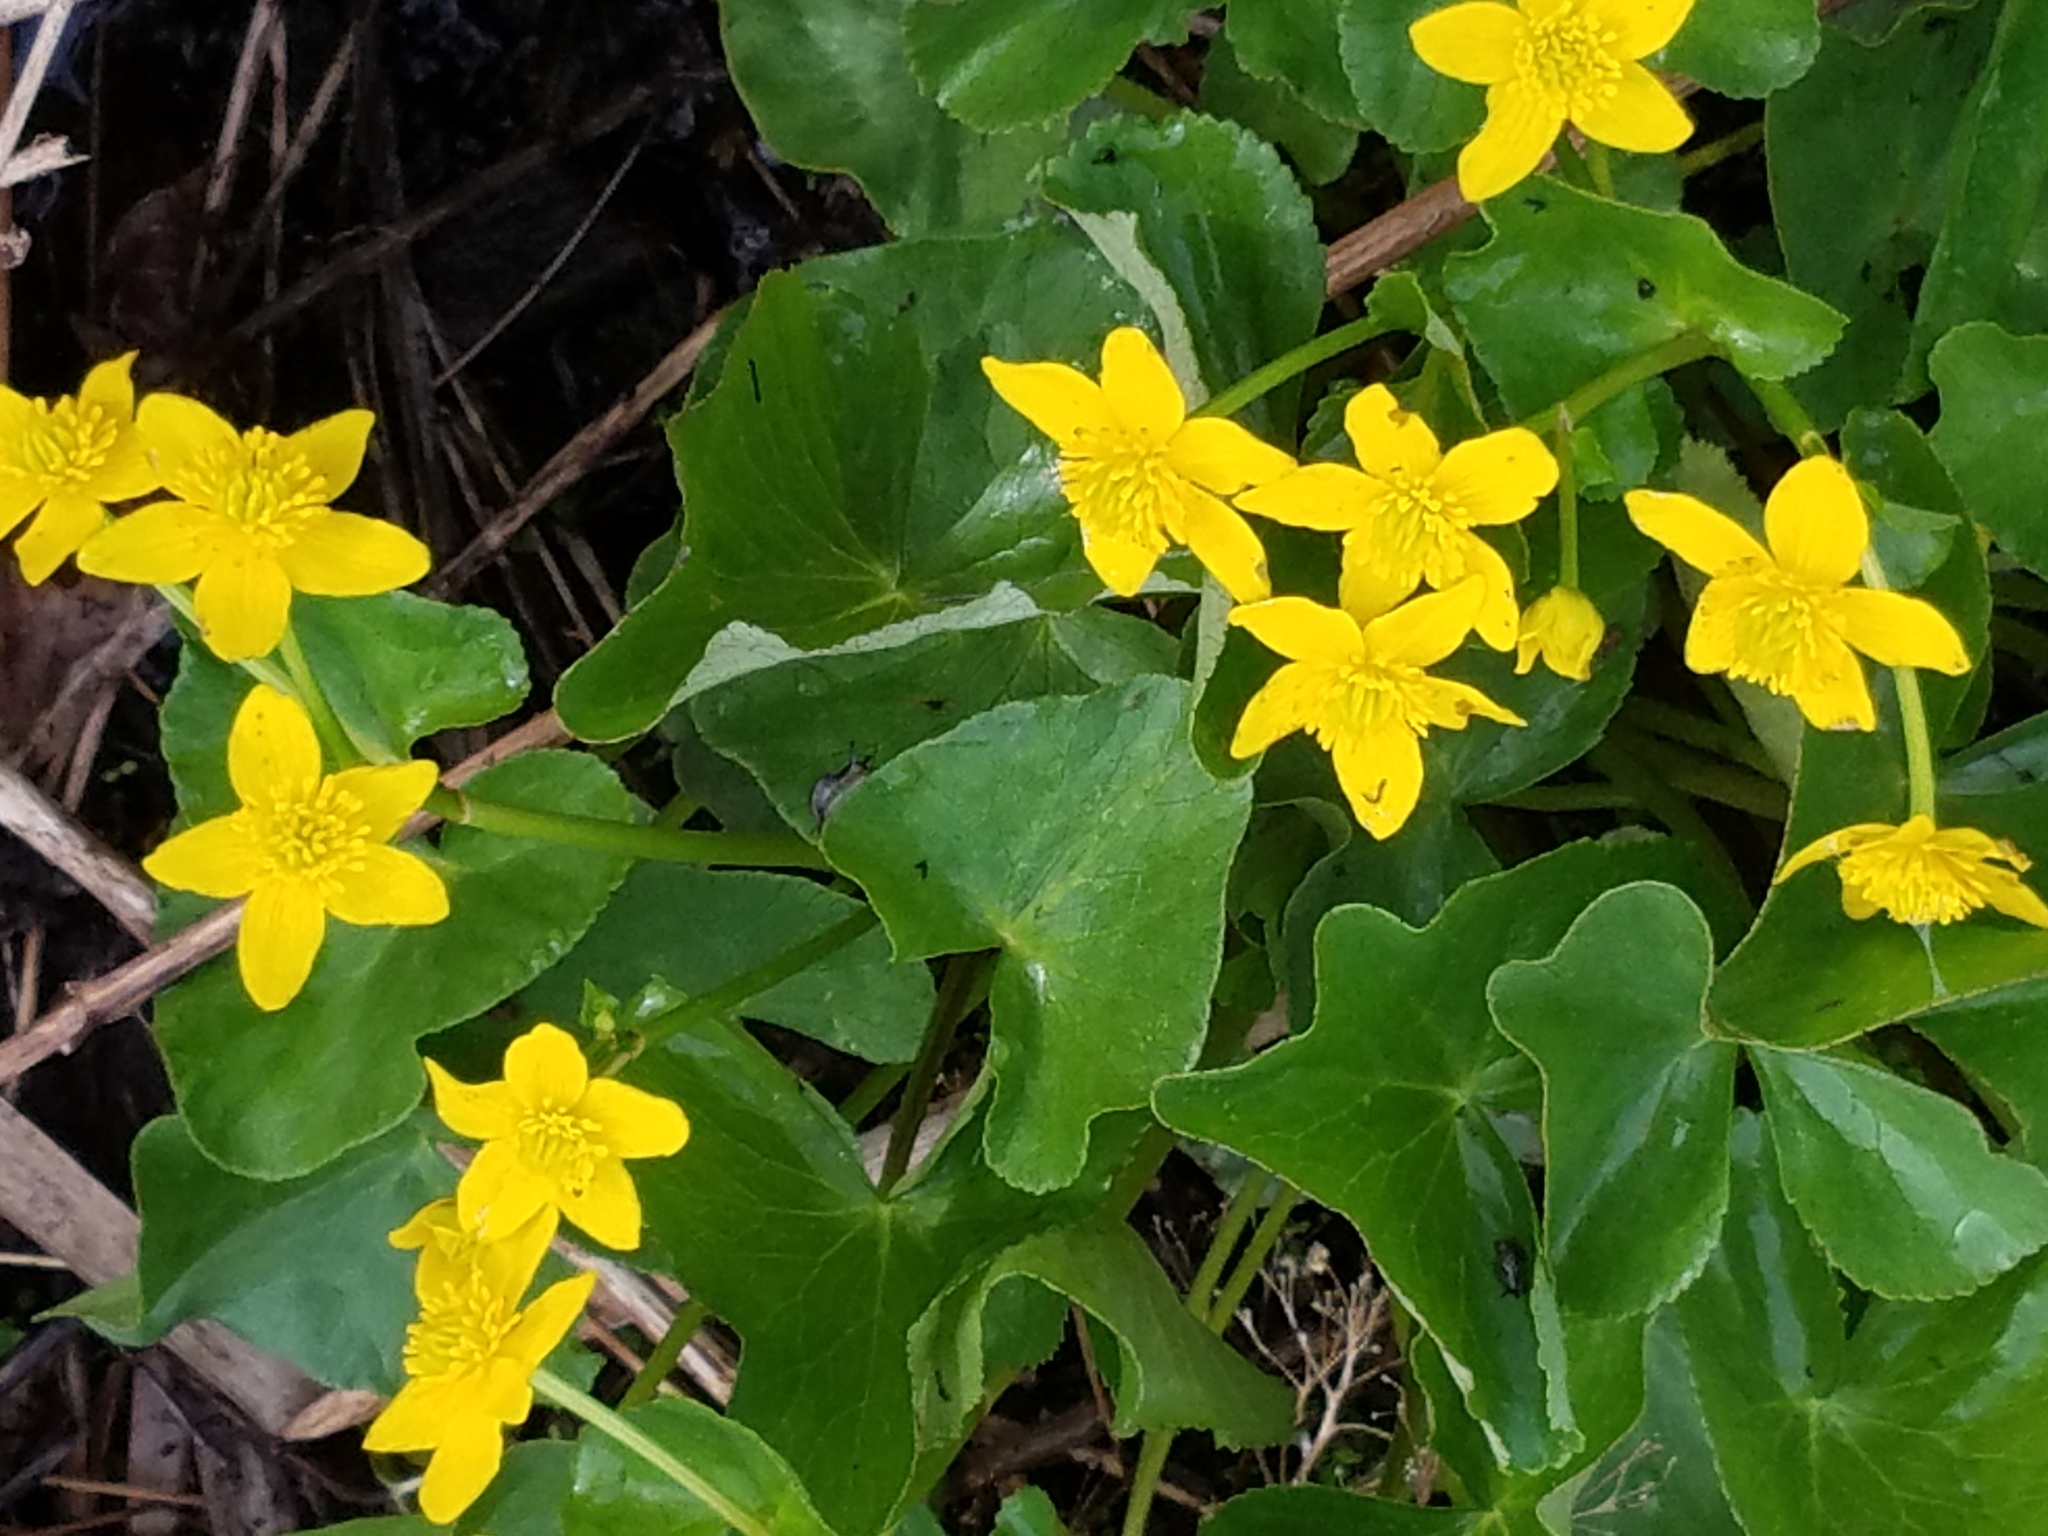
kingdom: Plantae
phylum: Tracheophyta
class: Magnoliopsida
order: Ranunculales
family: Ranunculaceae
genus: Caltha
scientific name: Caltha palustris
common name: Marsh marigold
